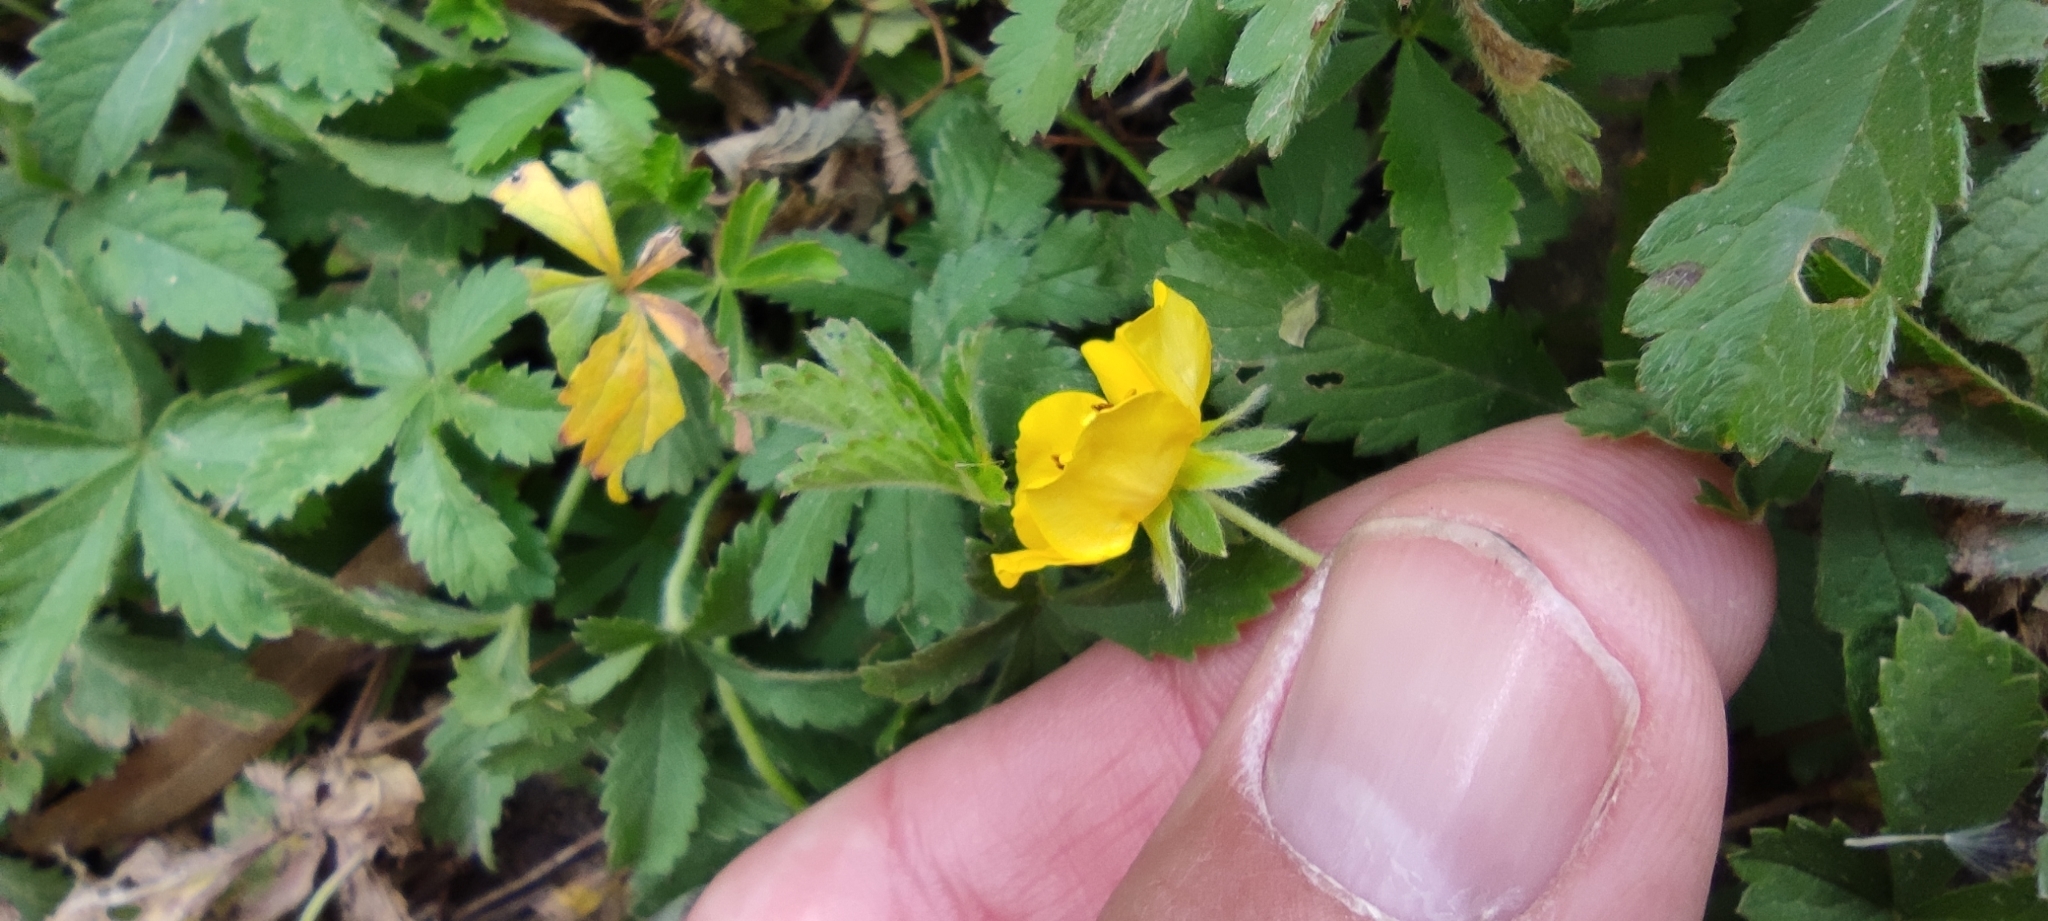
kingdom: Plantae
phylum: Tracheophyta
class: Magnoliopsida
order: Rosales
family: Rosaceae
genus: Potentilla
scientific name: Potentilla reptans
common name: Creeping cinquefoil
